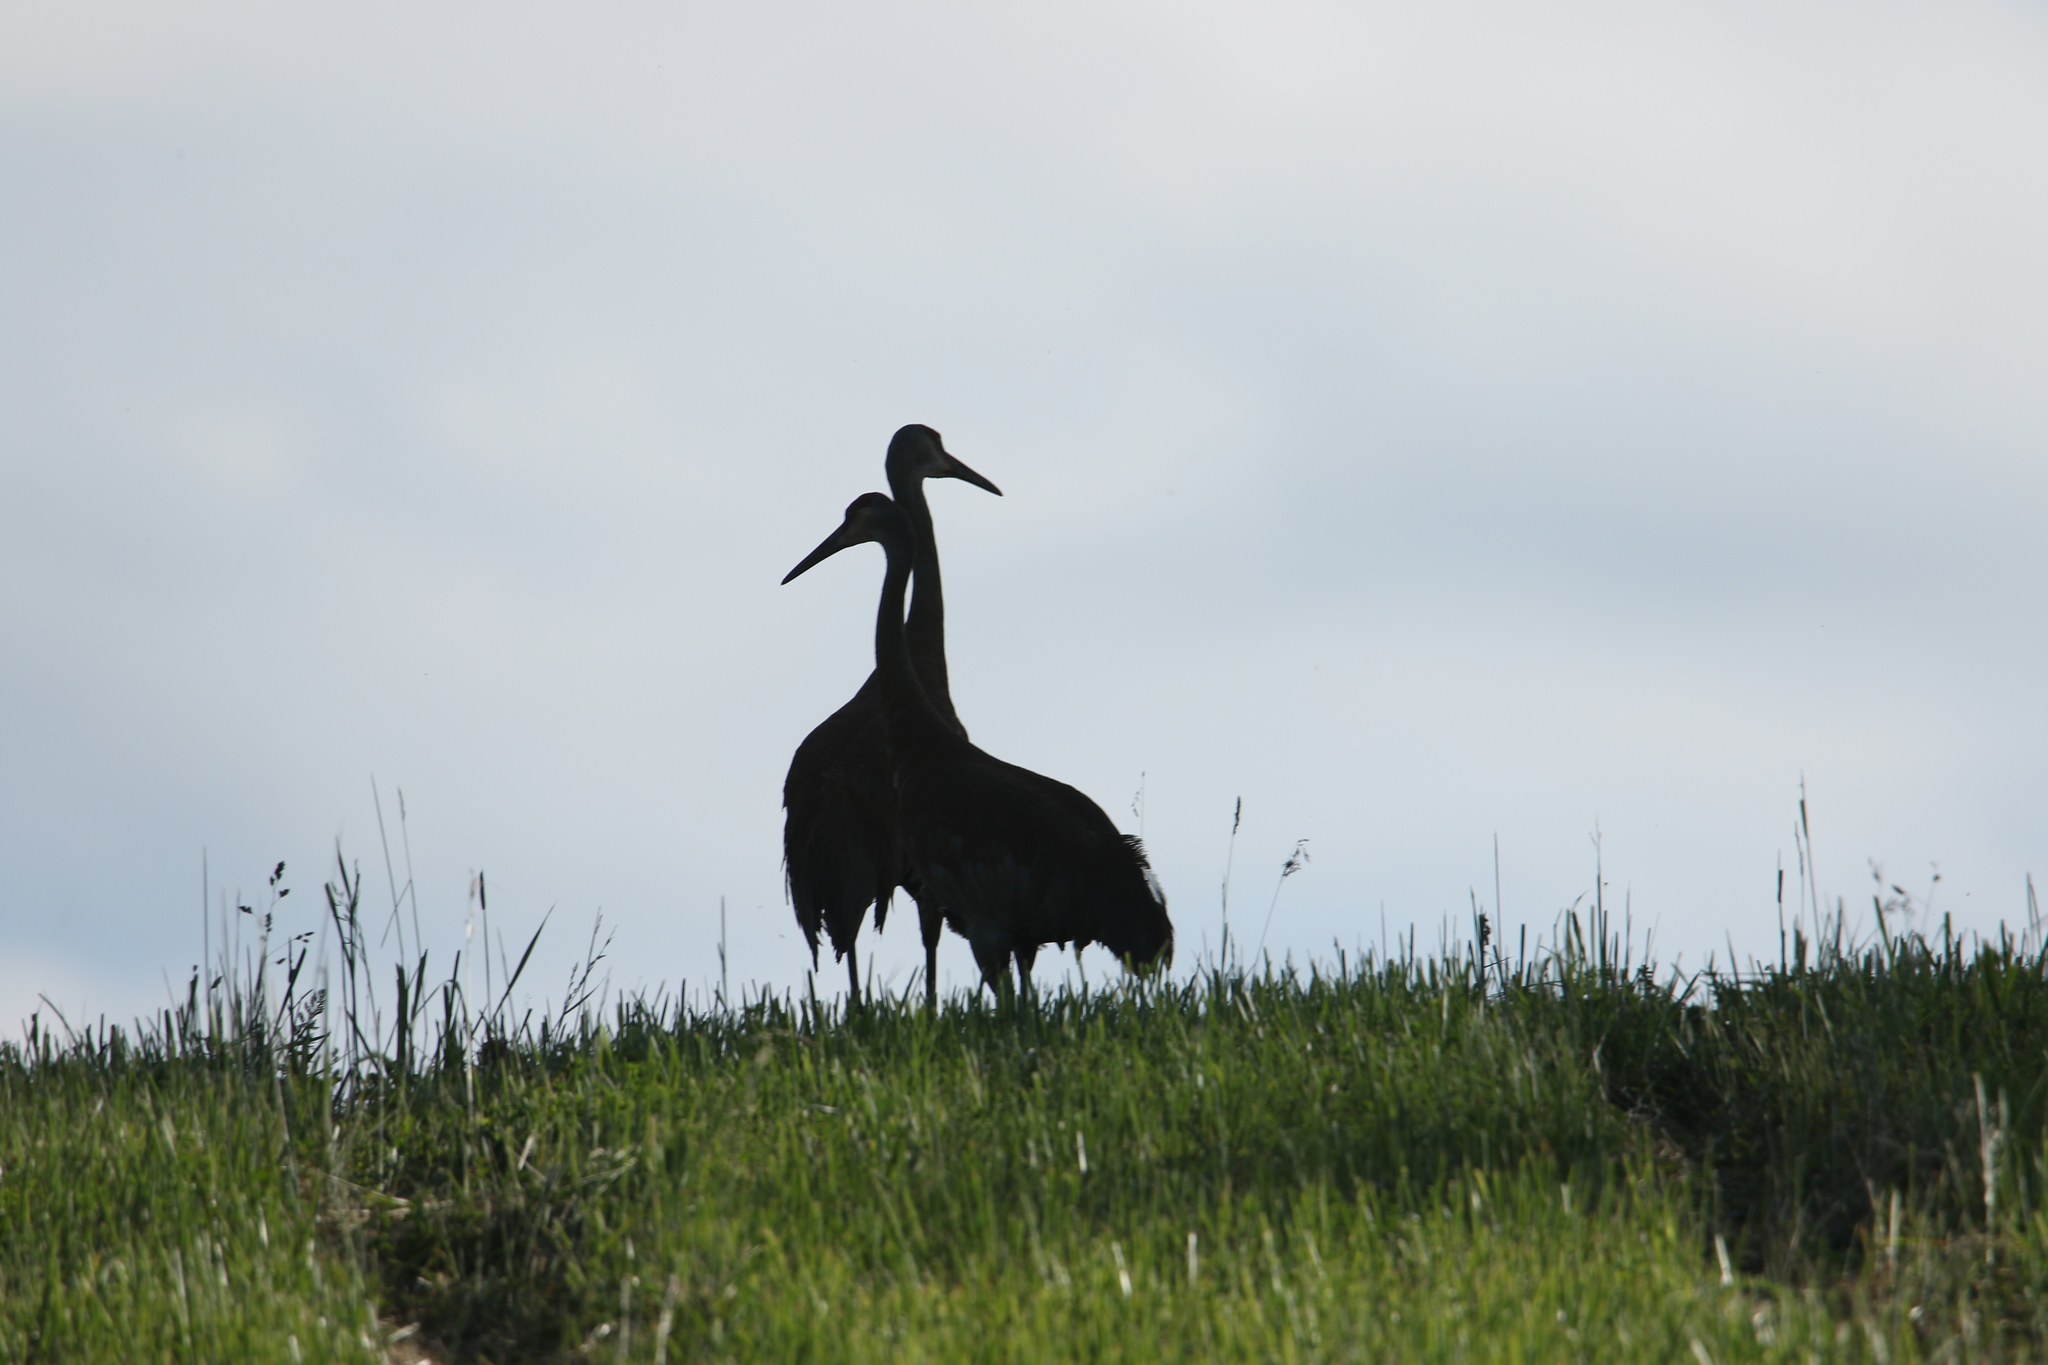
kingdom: Animalia
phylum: Chordata
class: Aves
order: Gruiformes
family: Gruidae
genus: Grus
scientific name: Grus canadensis
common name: Sandhill crane
